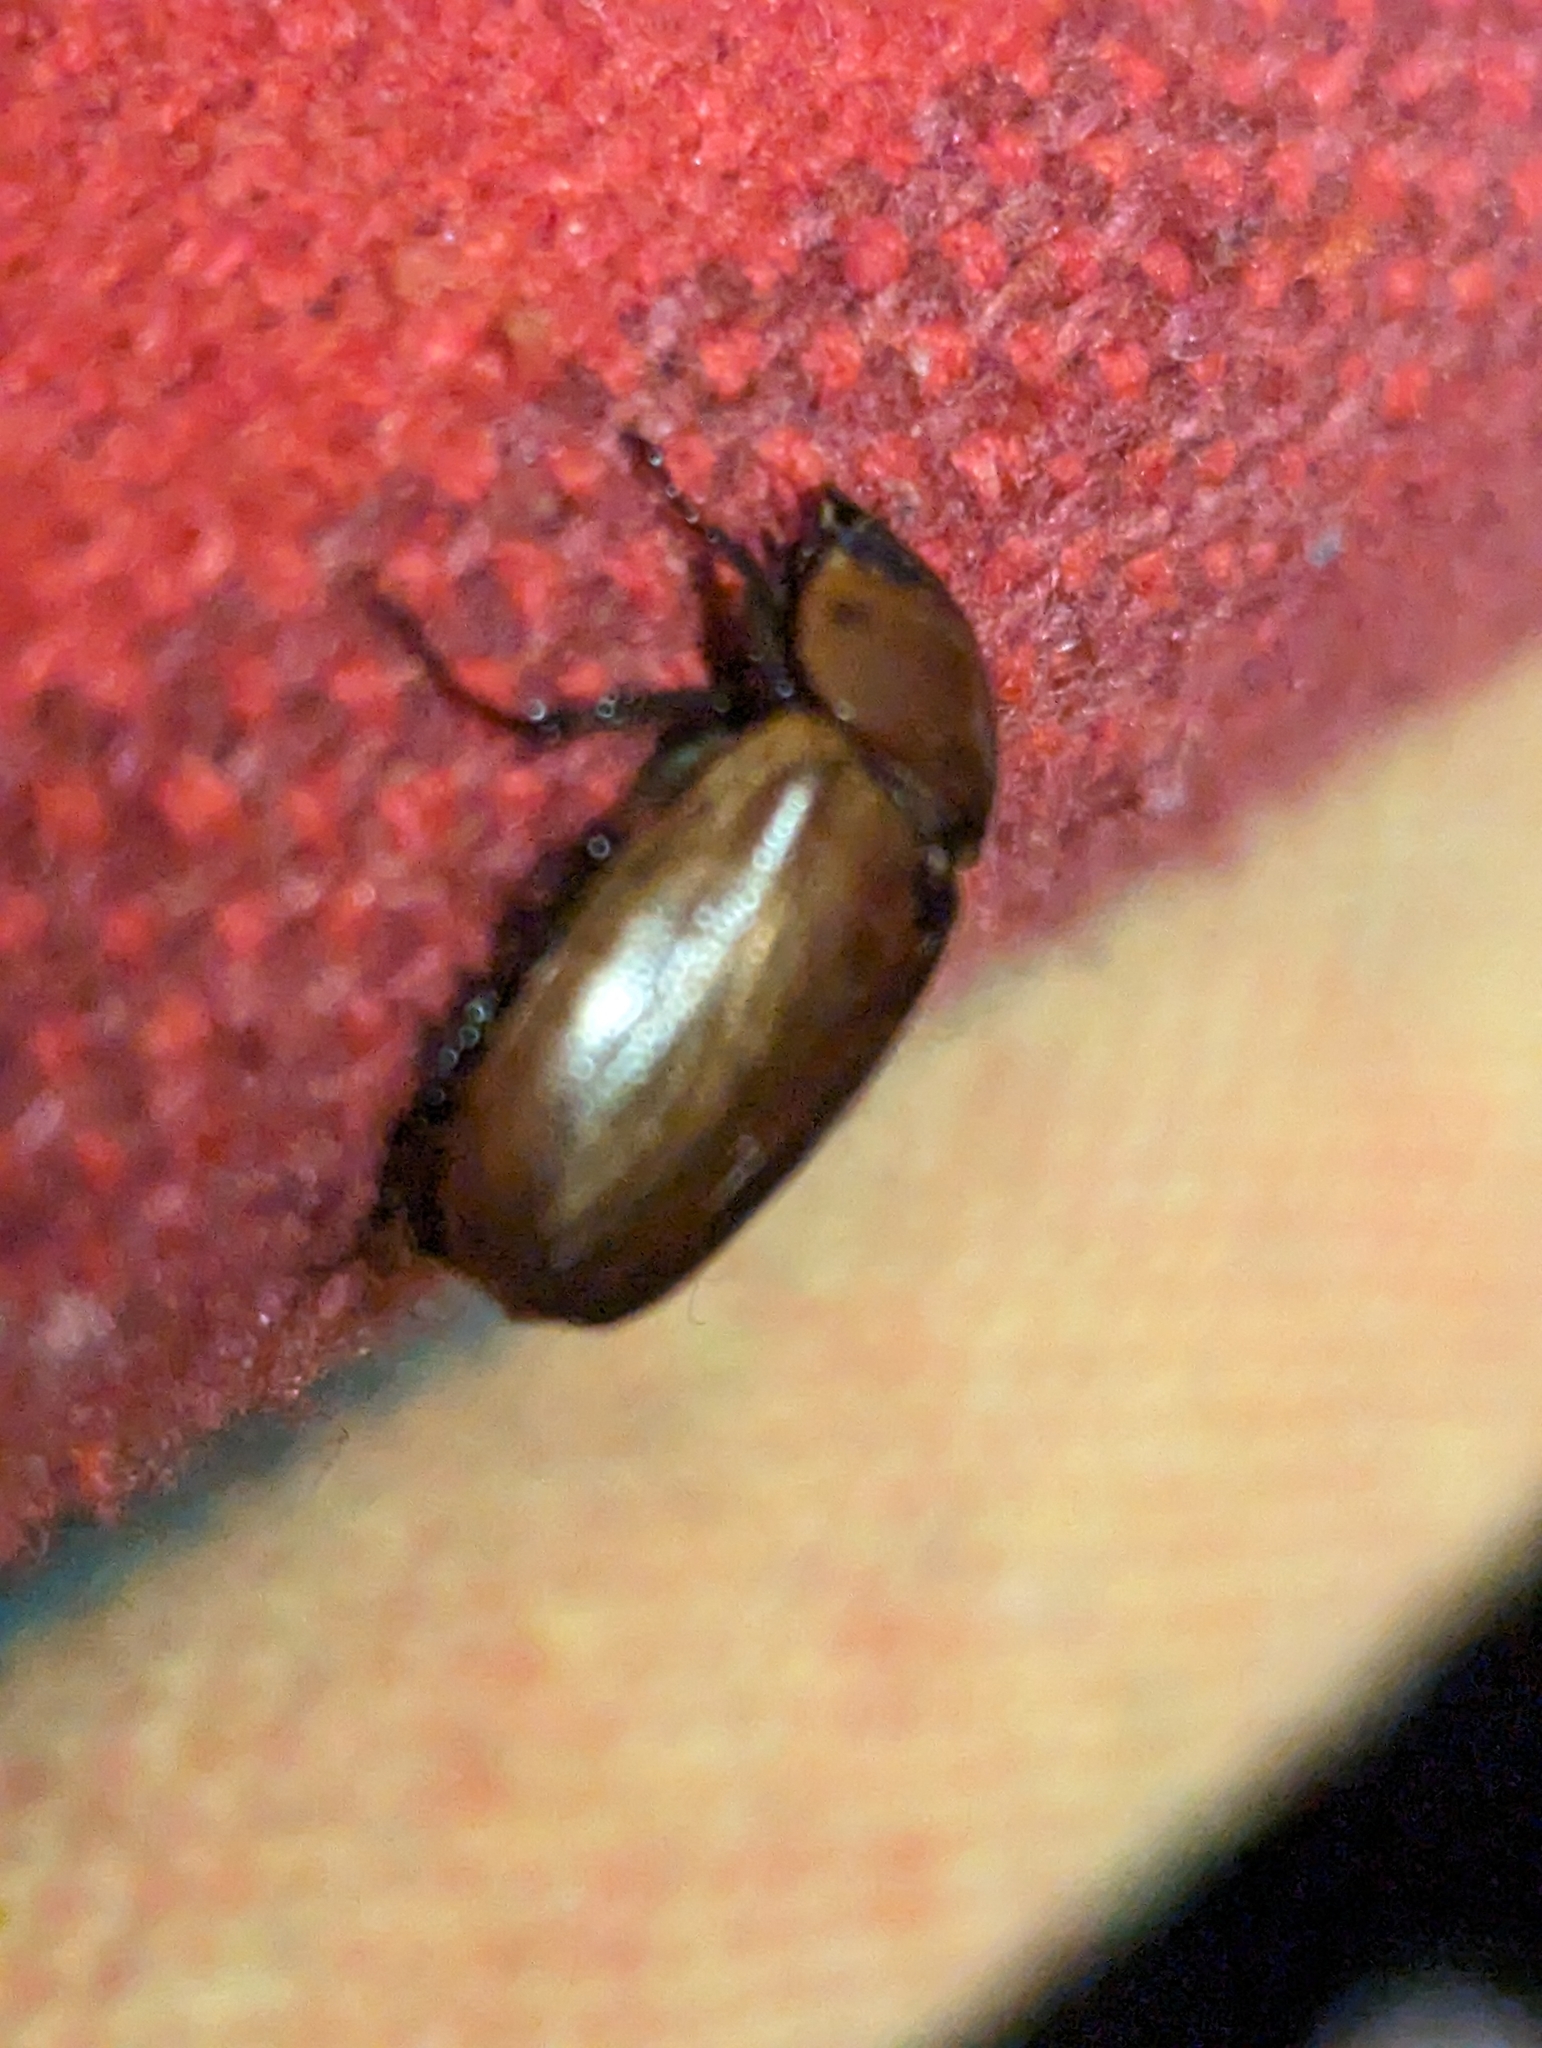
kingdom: Animalia
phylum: Arthropoda
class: Insecta
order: Coleoptera
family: Scarabaeidae
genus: Cyclocephala
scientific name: Cyclocephala lunulata
